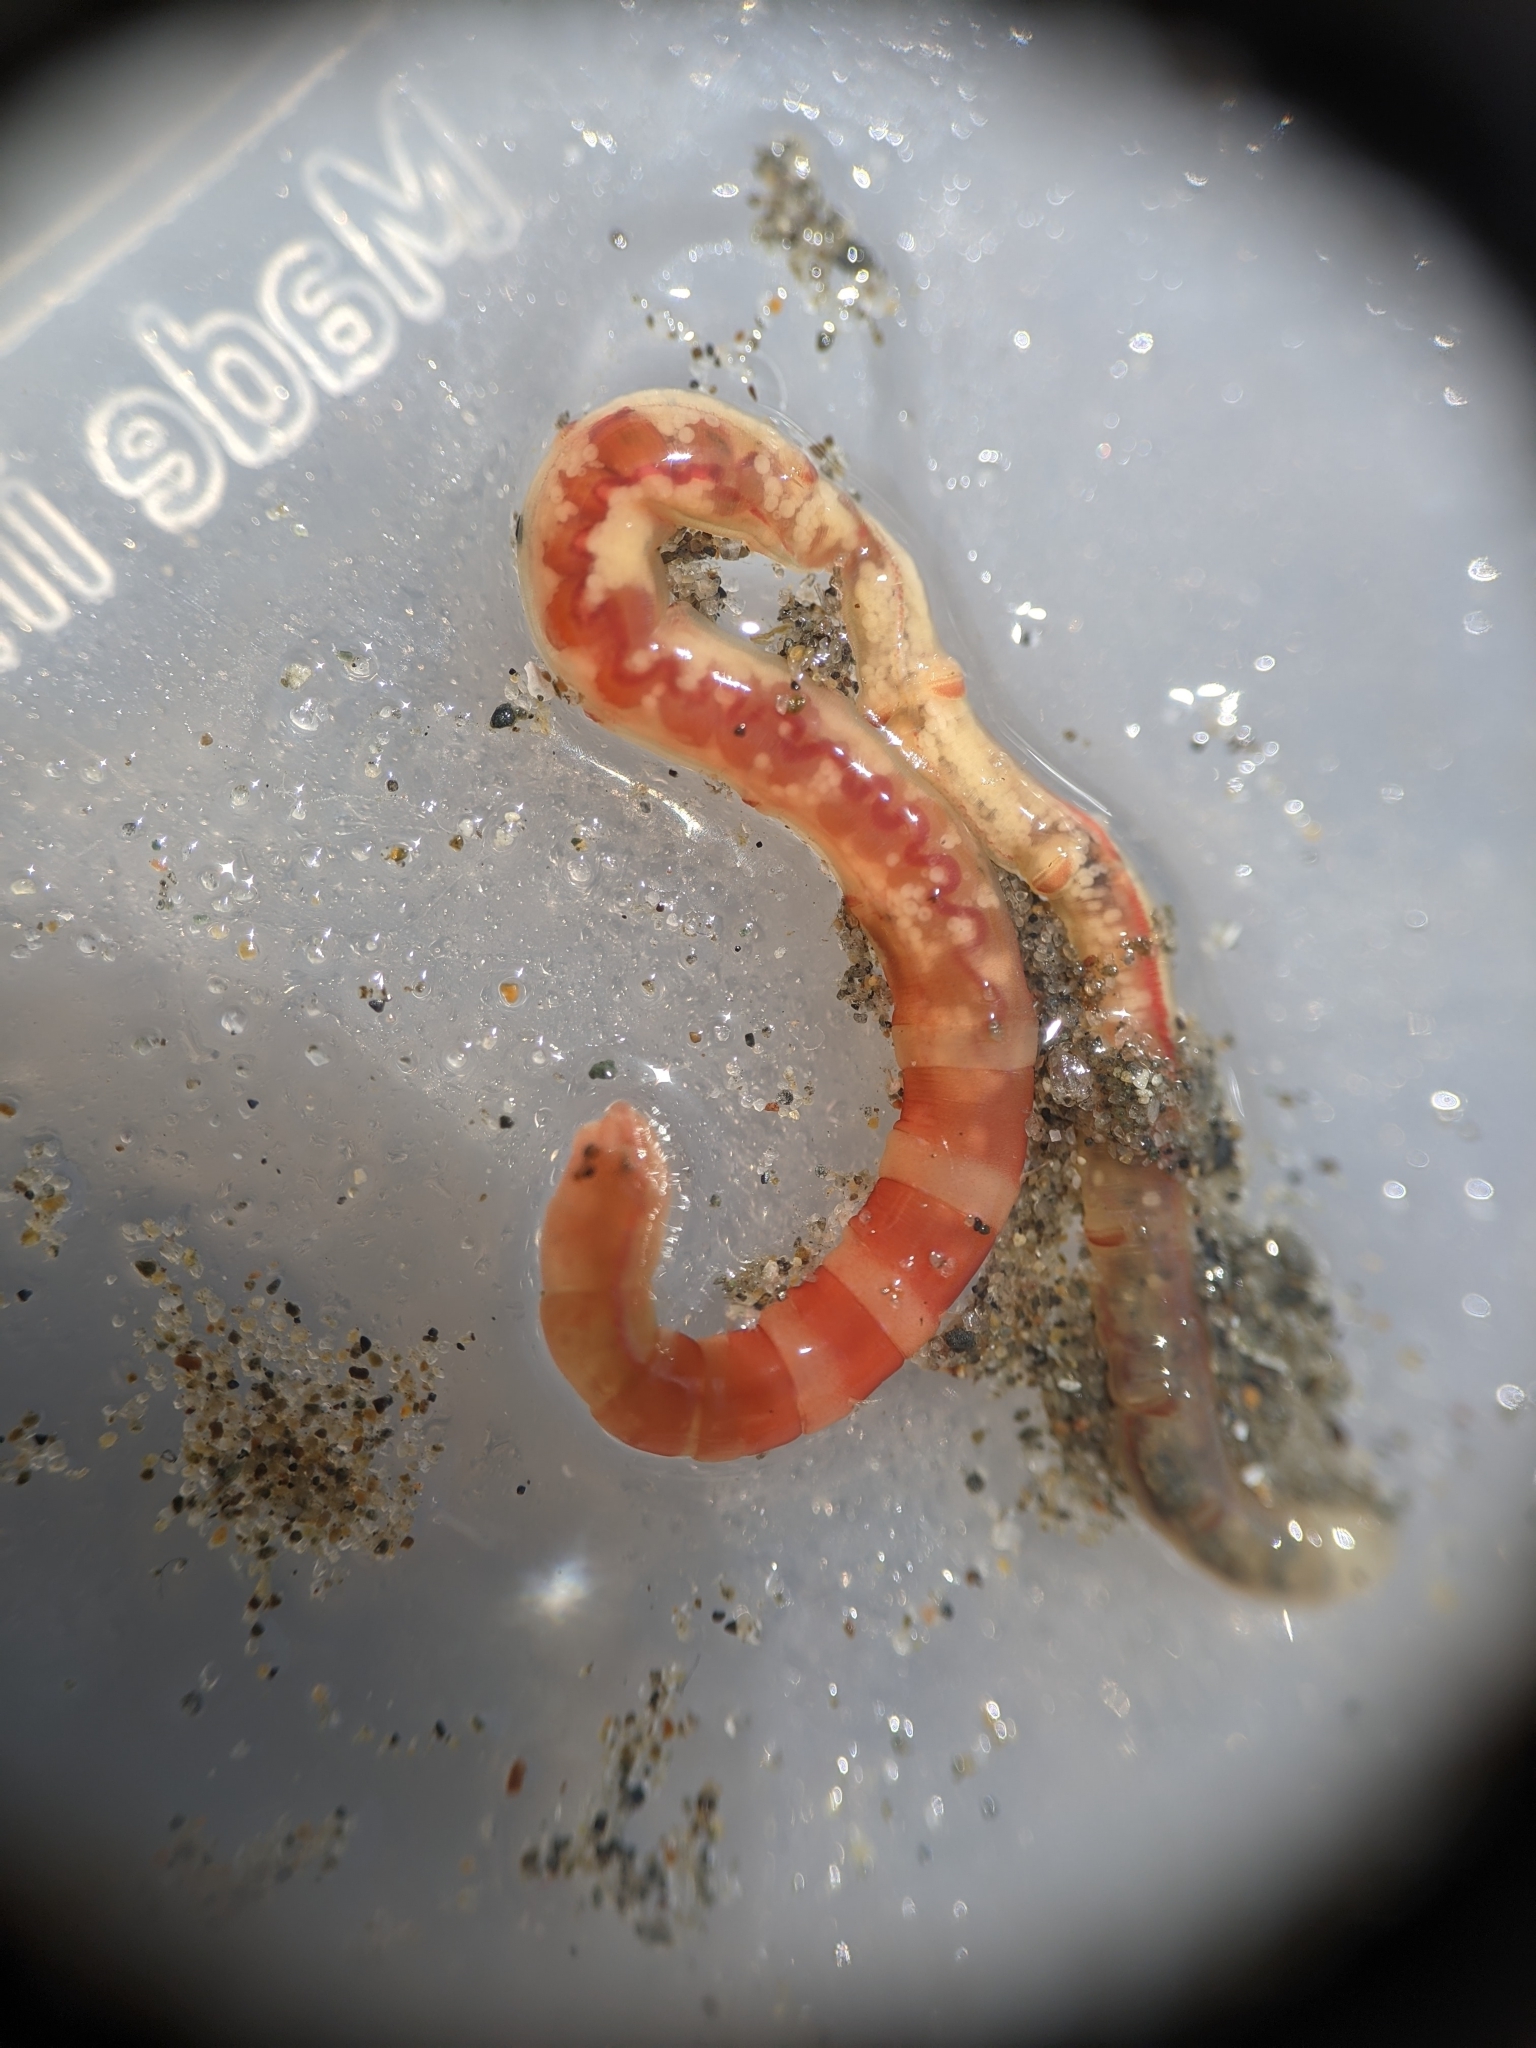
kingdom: Animalia
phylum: Annelida
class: Polychaeta
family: Maldanidae
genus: Axiothella
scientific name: Axiothella rubrocincta
